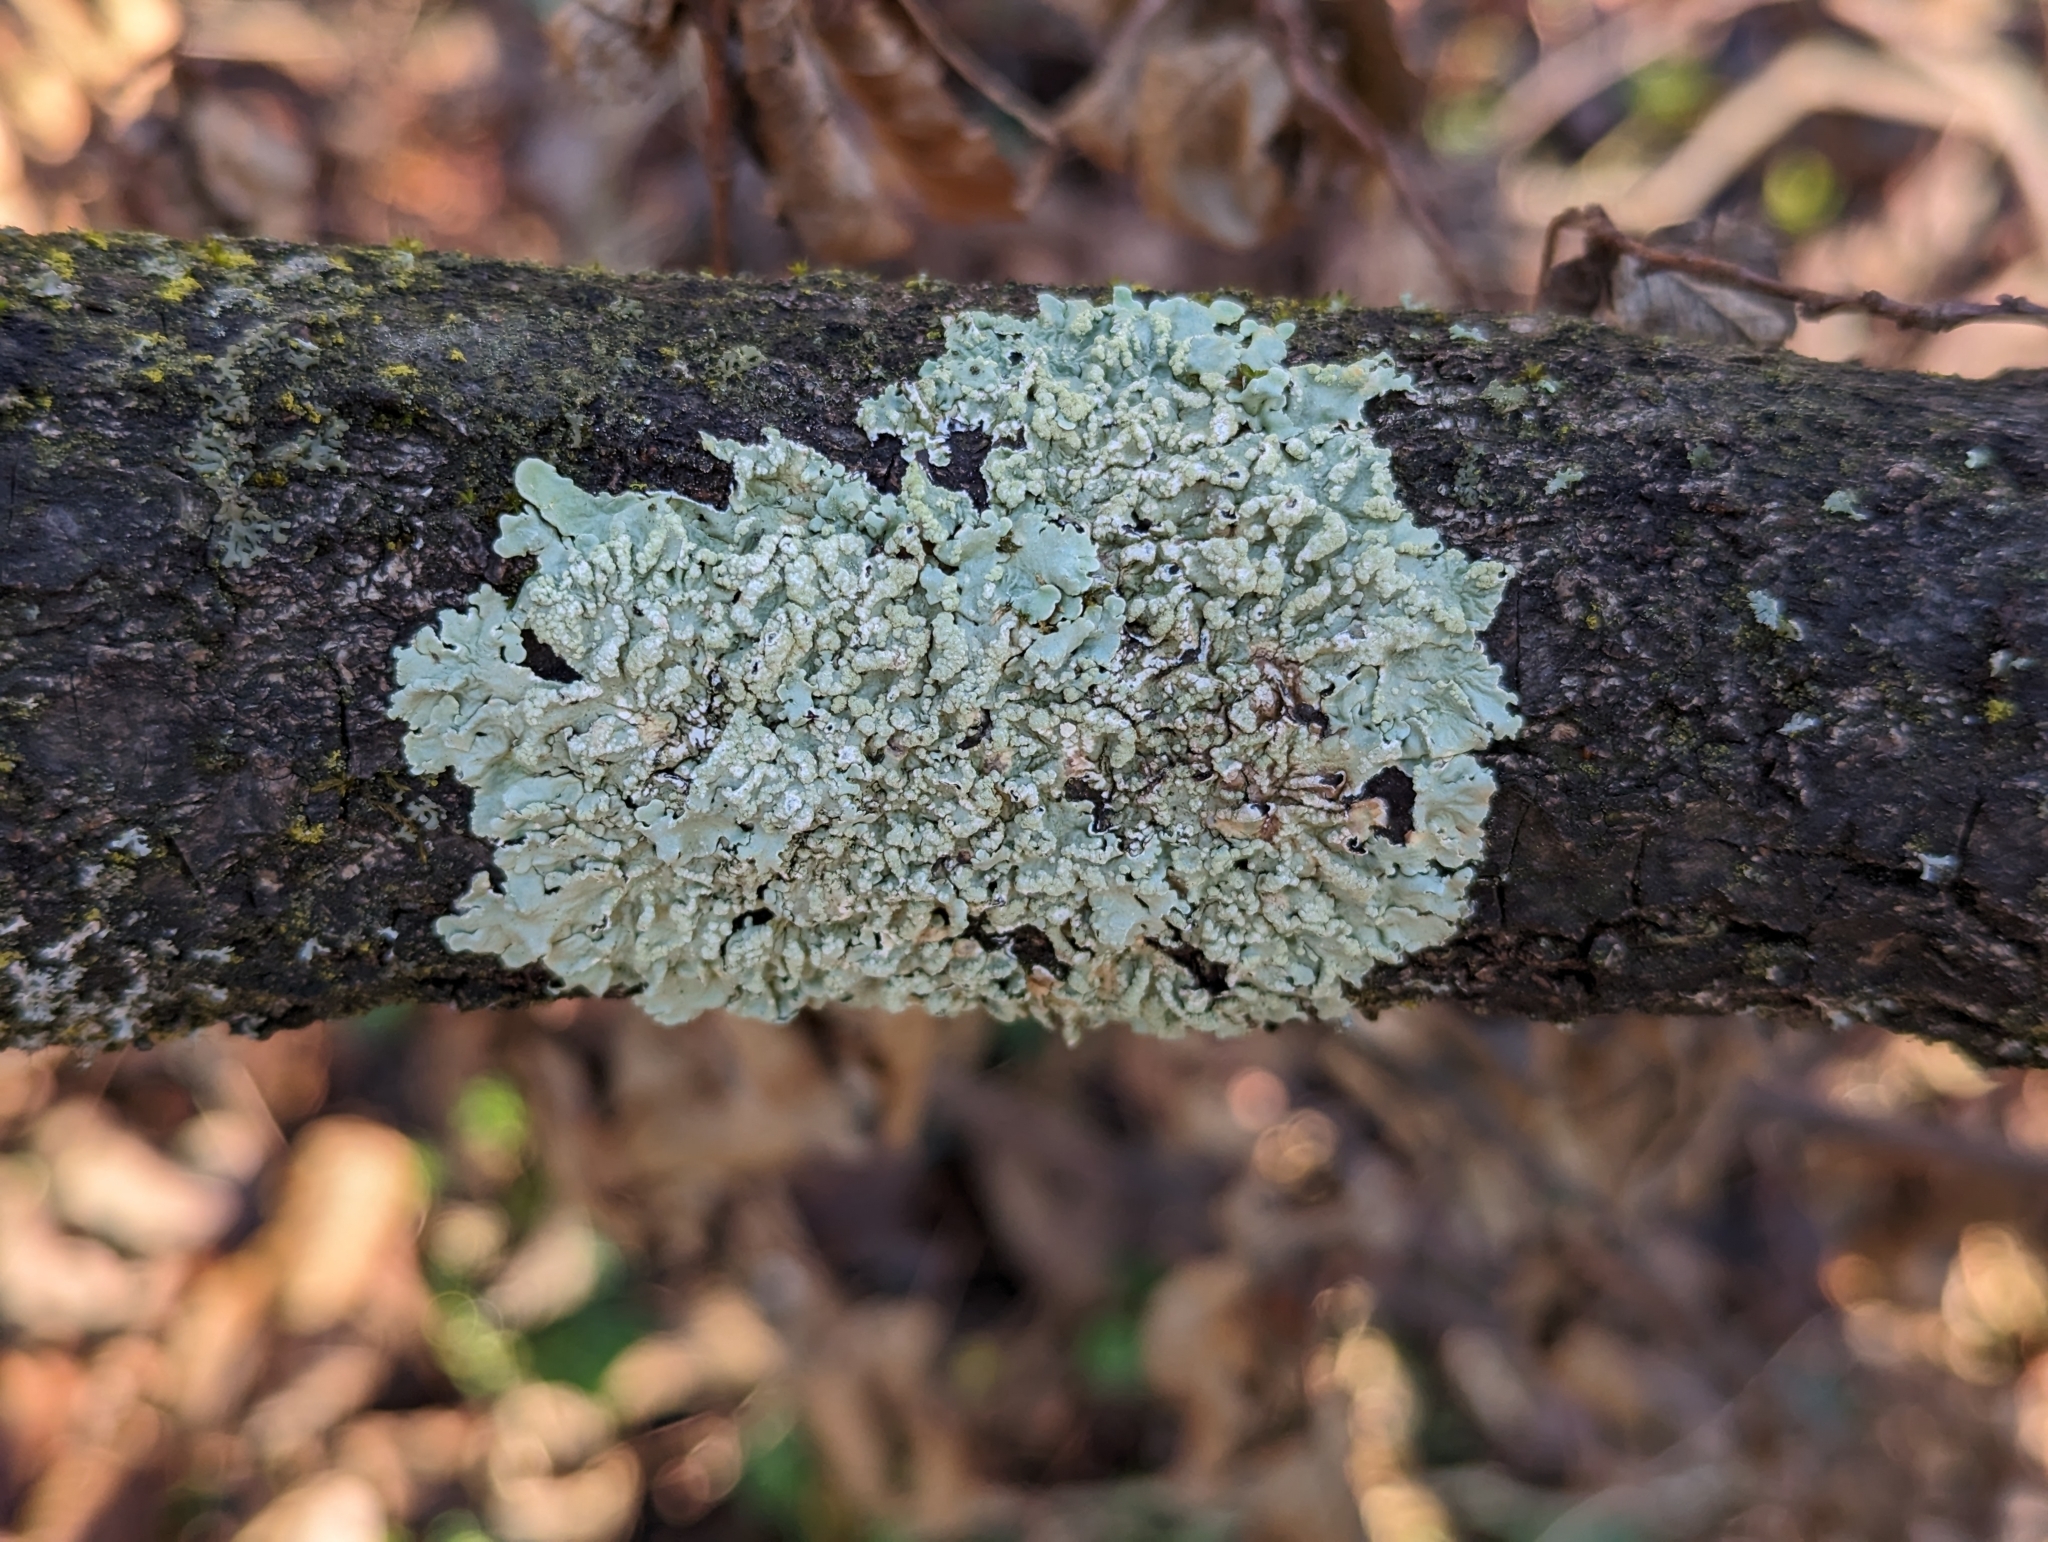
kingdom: Fungi
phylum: Ascomycota
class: Lecanoromycetes
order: Lecanorales
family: Parmeliaceae
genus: Flavoparmelia
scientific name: Flavoparmelia soredians
